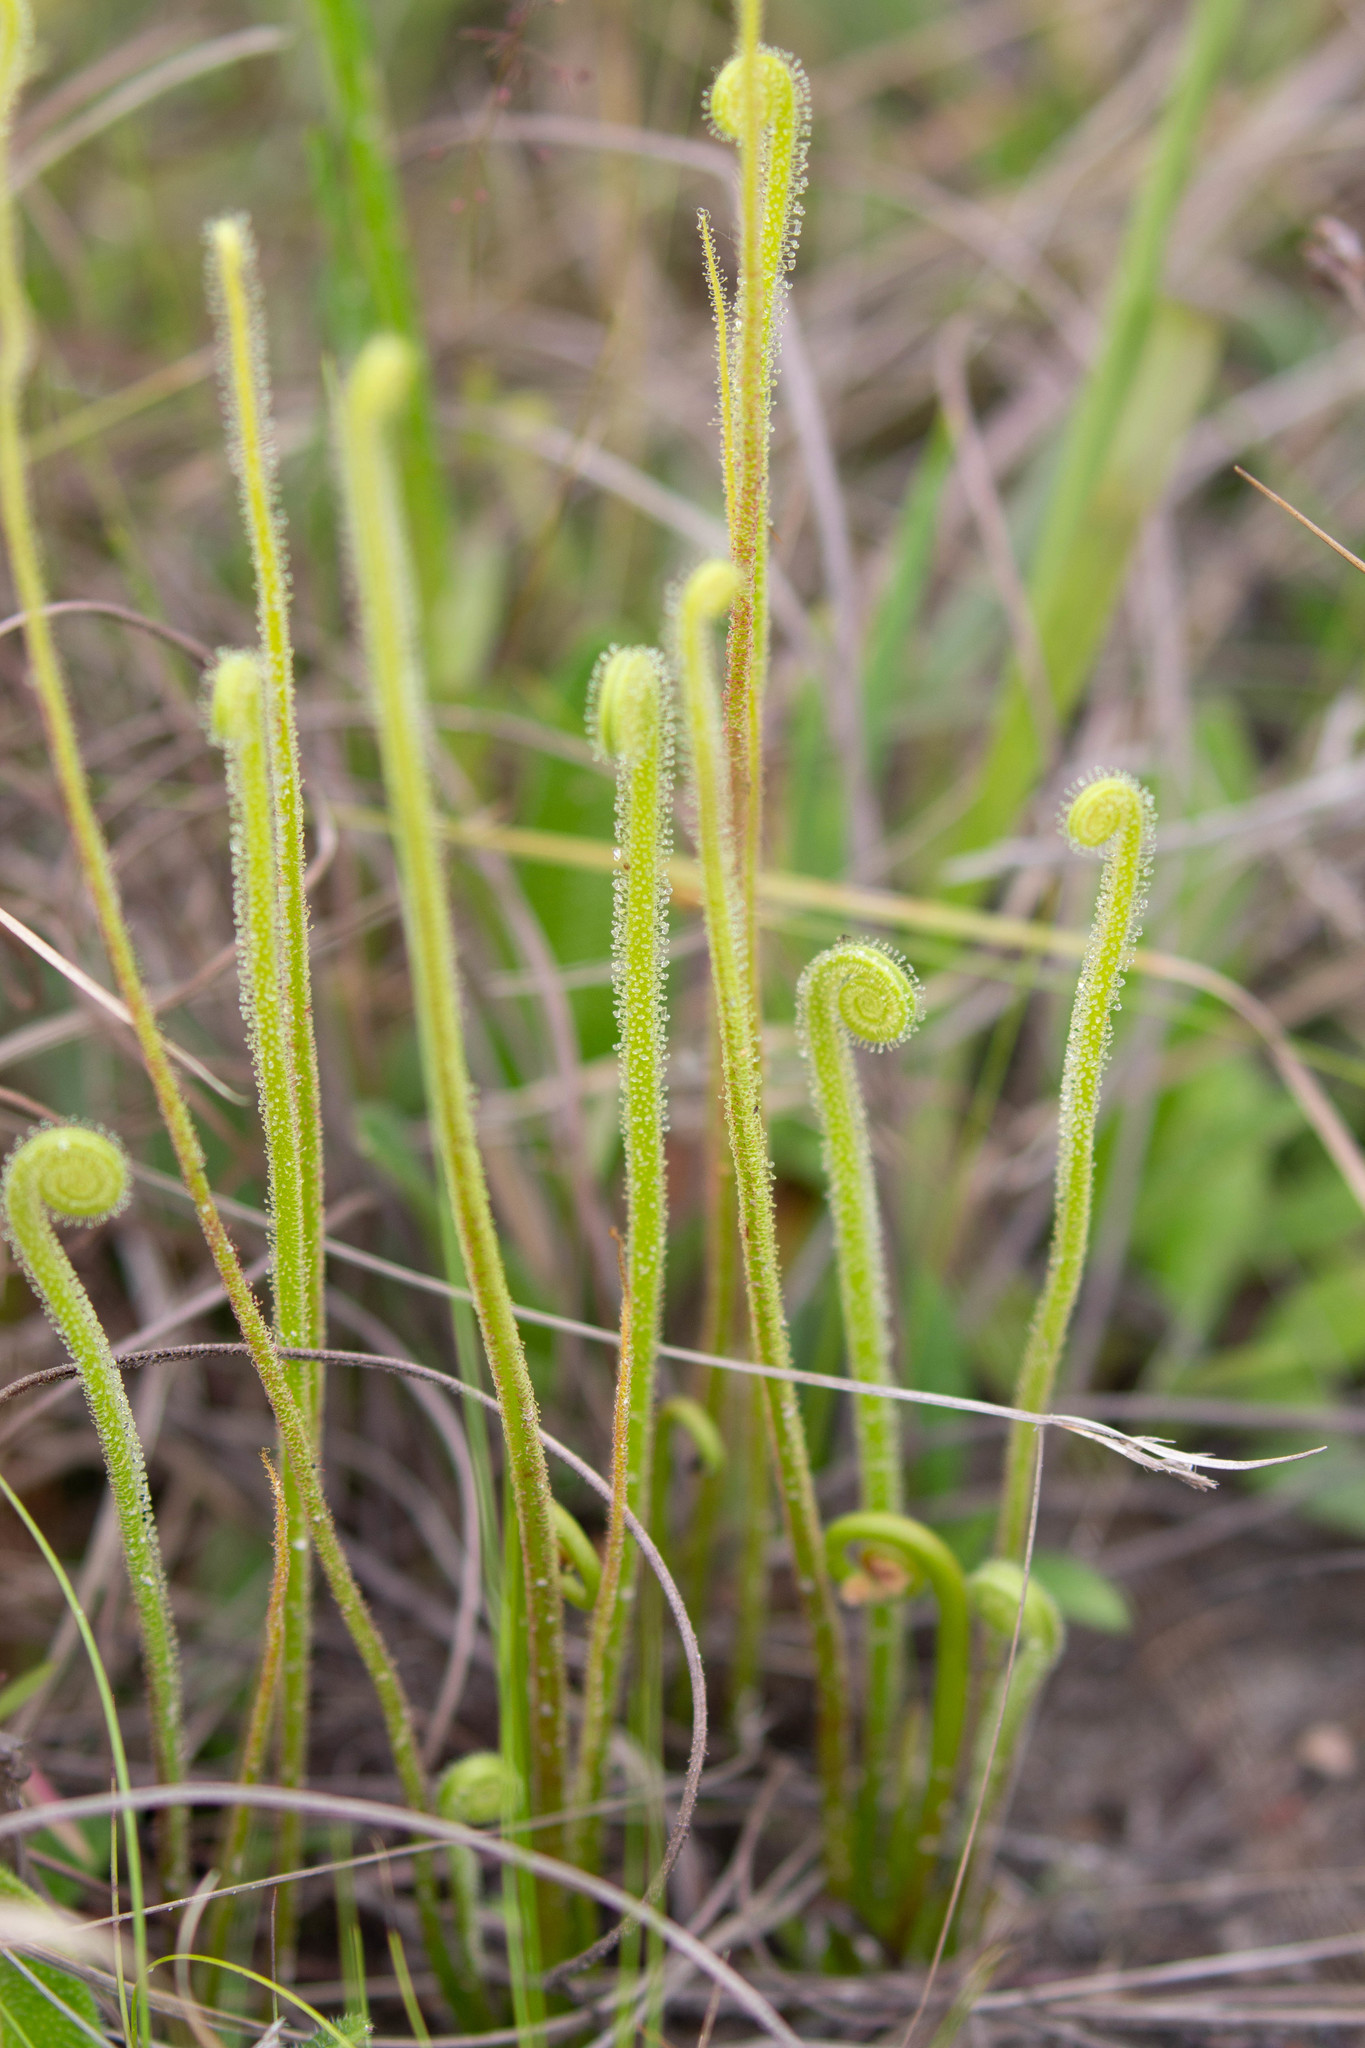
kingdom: Plantae
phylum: Tracheophyta
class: Magnoliopsida
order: Caryophyllales
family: Droseraceae
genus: Drosera
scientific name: Drosera filiformis
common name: Dew-thread
